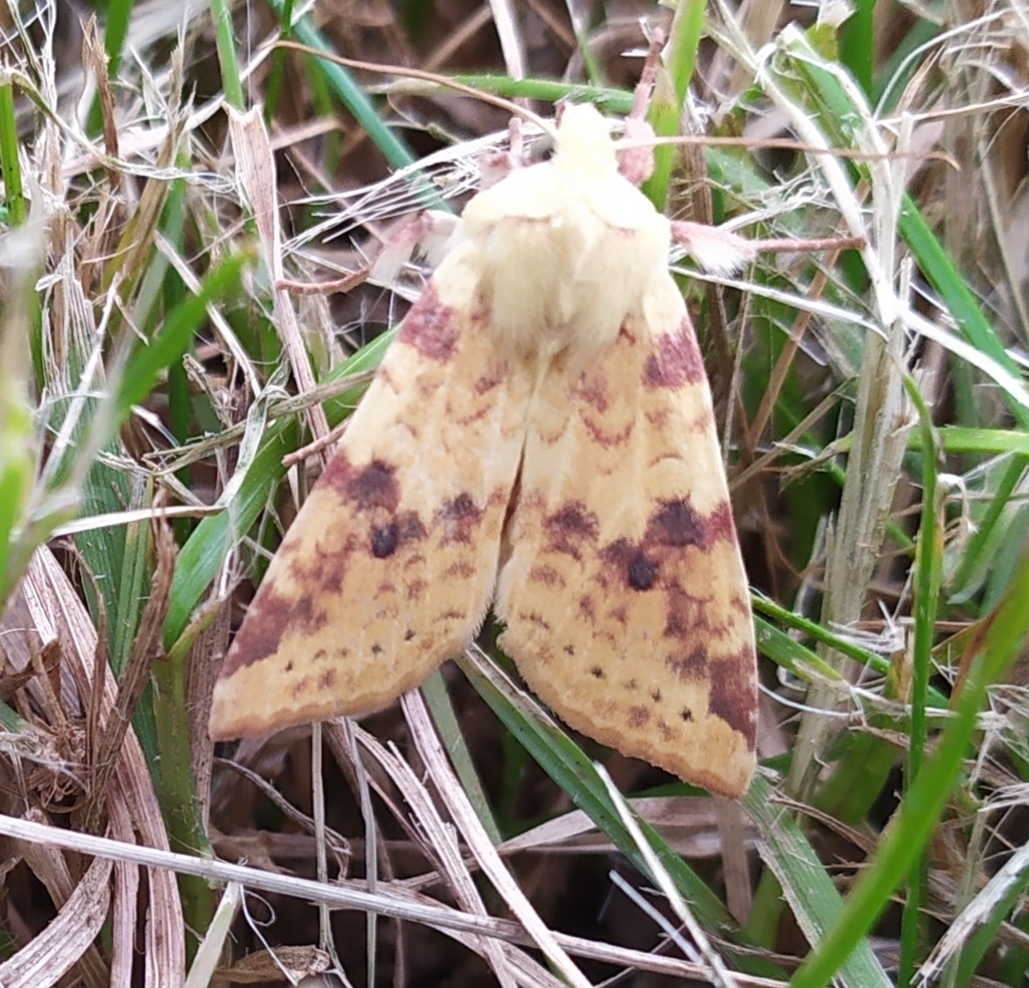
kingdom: Animalia
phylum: Arthropoda
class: Insecta
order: Lepidoptera
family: Noctuidae
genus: Xanthia
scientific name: Xanthia icteritia
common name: The sallow
